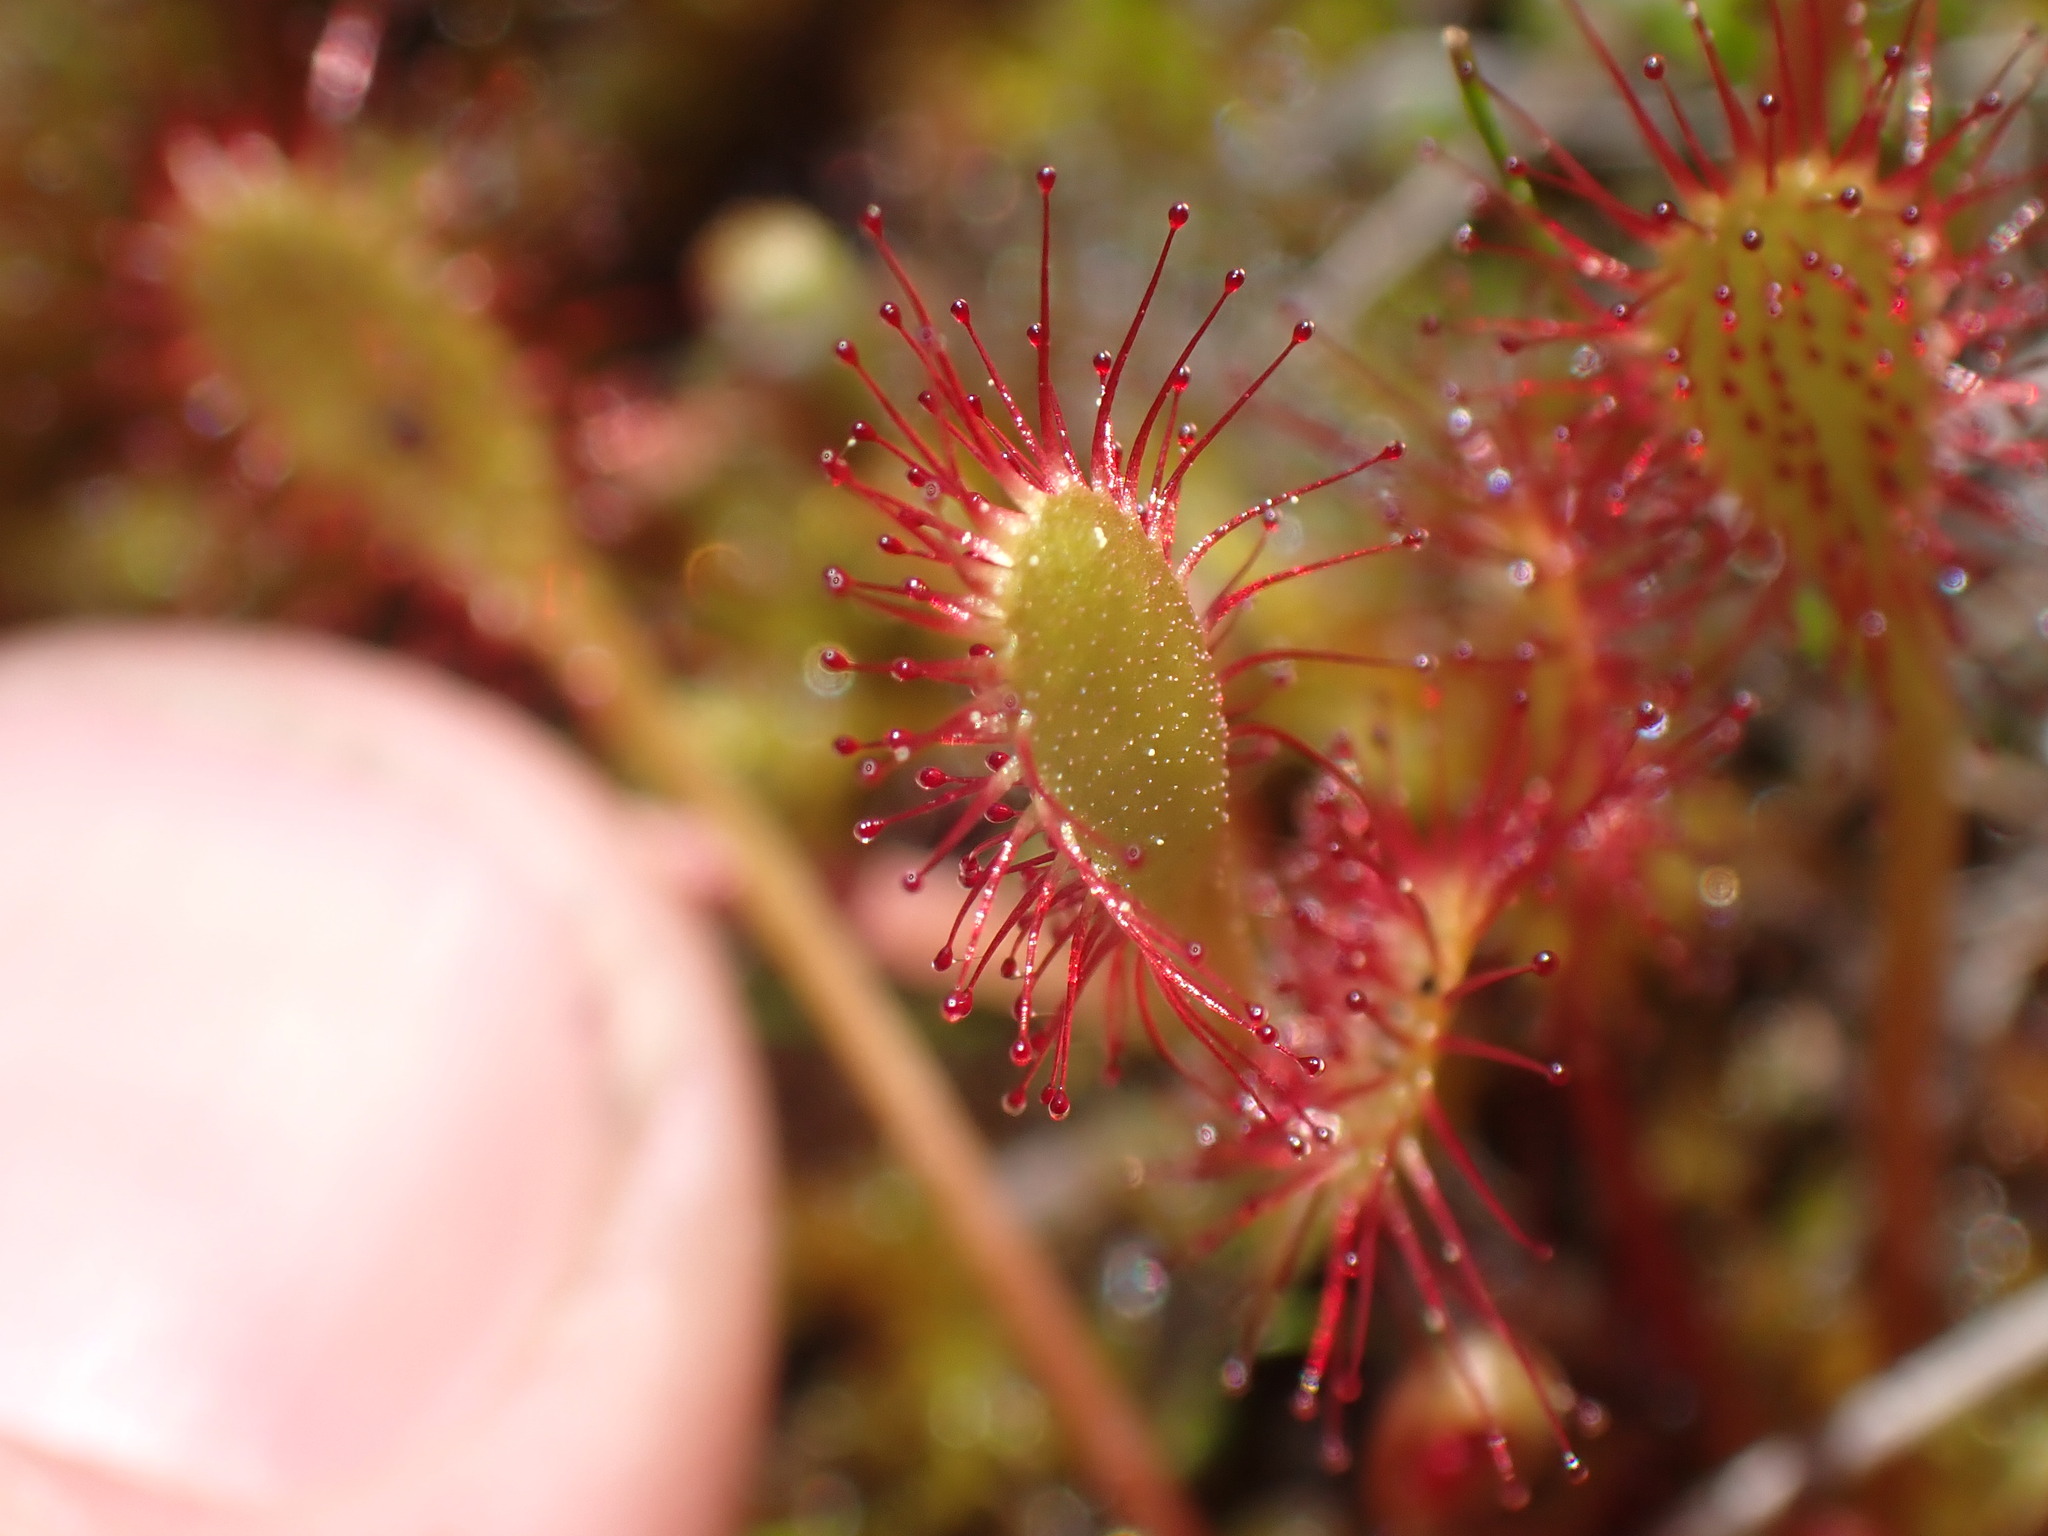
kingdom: Plantae
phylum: Tracheophyta
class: Magnoliopsida
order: Caryophyllales
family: Droseraceae
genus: Drosera
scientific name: Drosera anglica
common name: Great sundew
